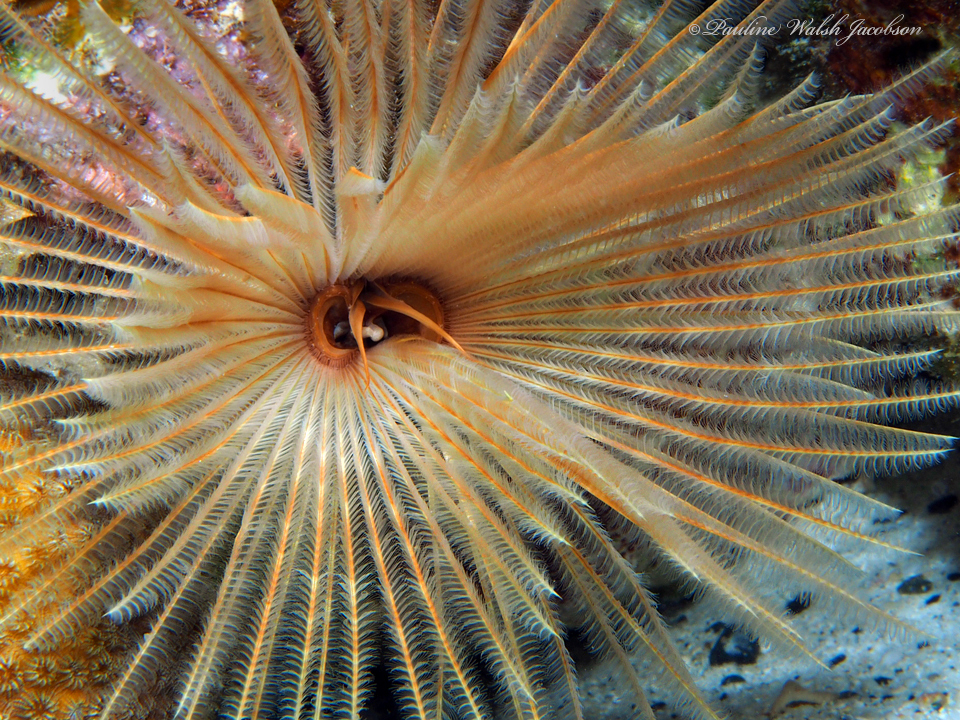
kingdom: Animalia
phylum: Annelida
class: Polychaeta
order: Sabellida
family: Sabellidae
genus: Sabellastarte
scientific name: Sabellastarte magnifica
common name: Giant feather-duster worm
